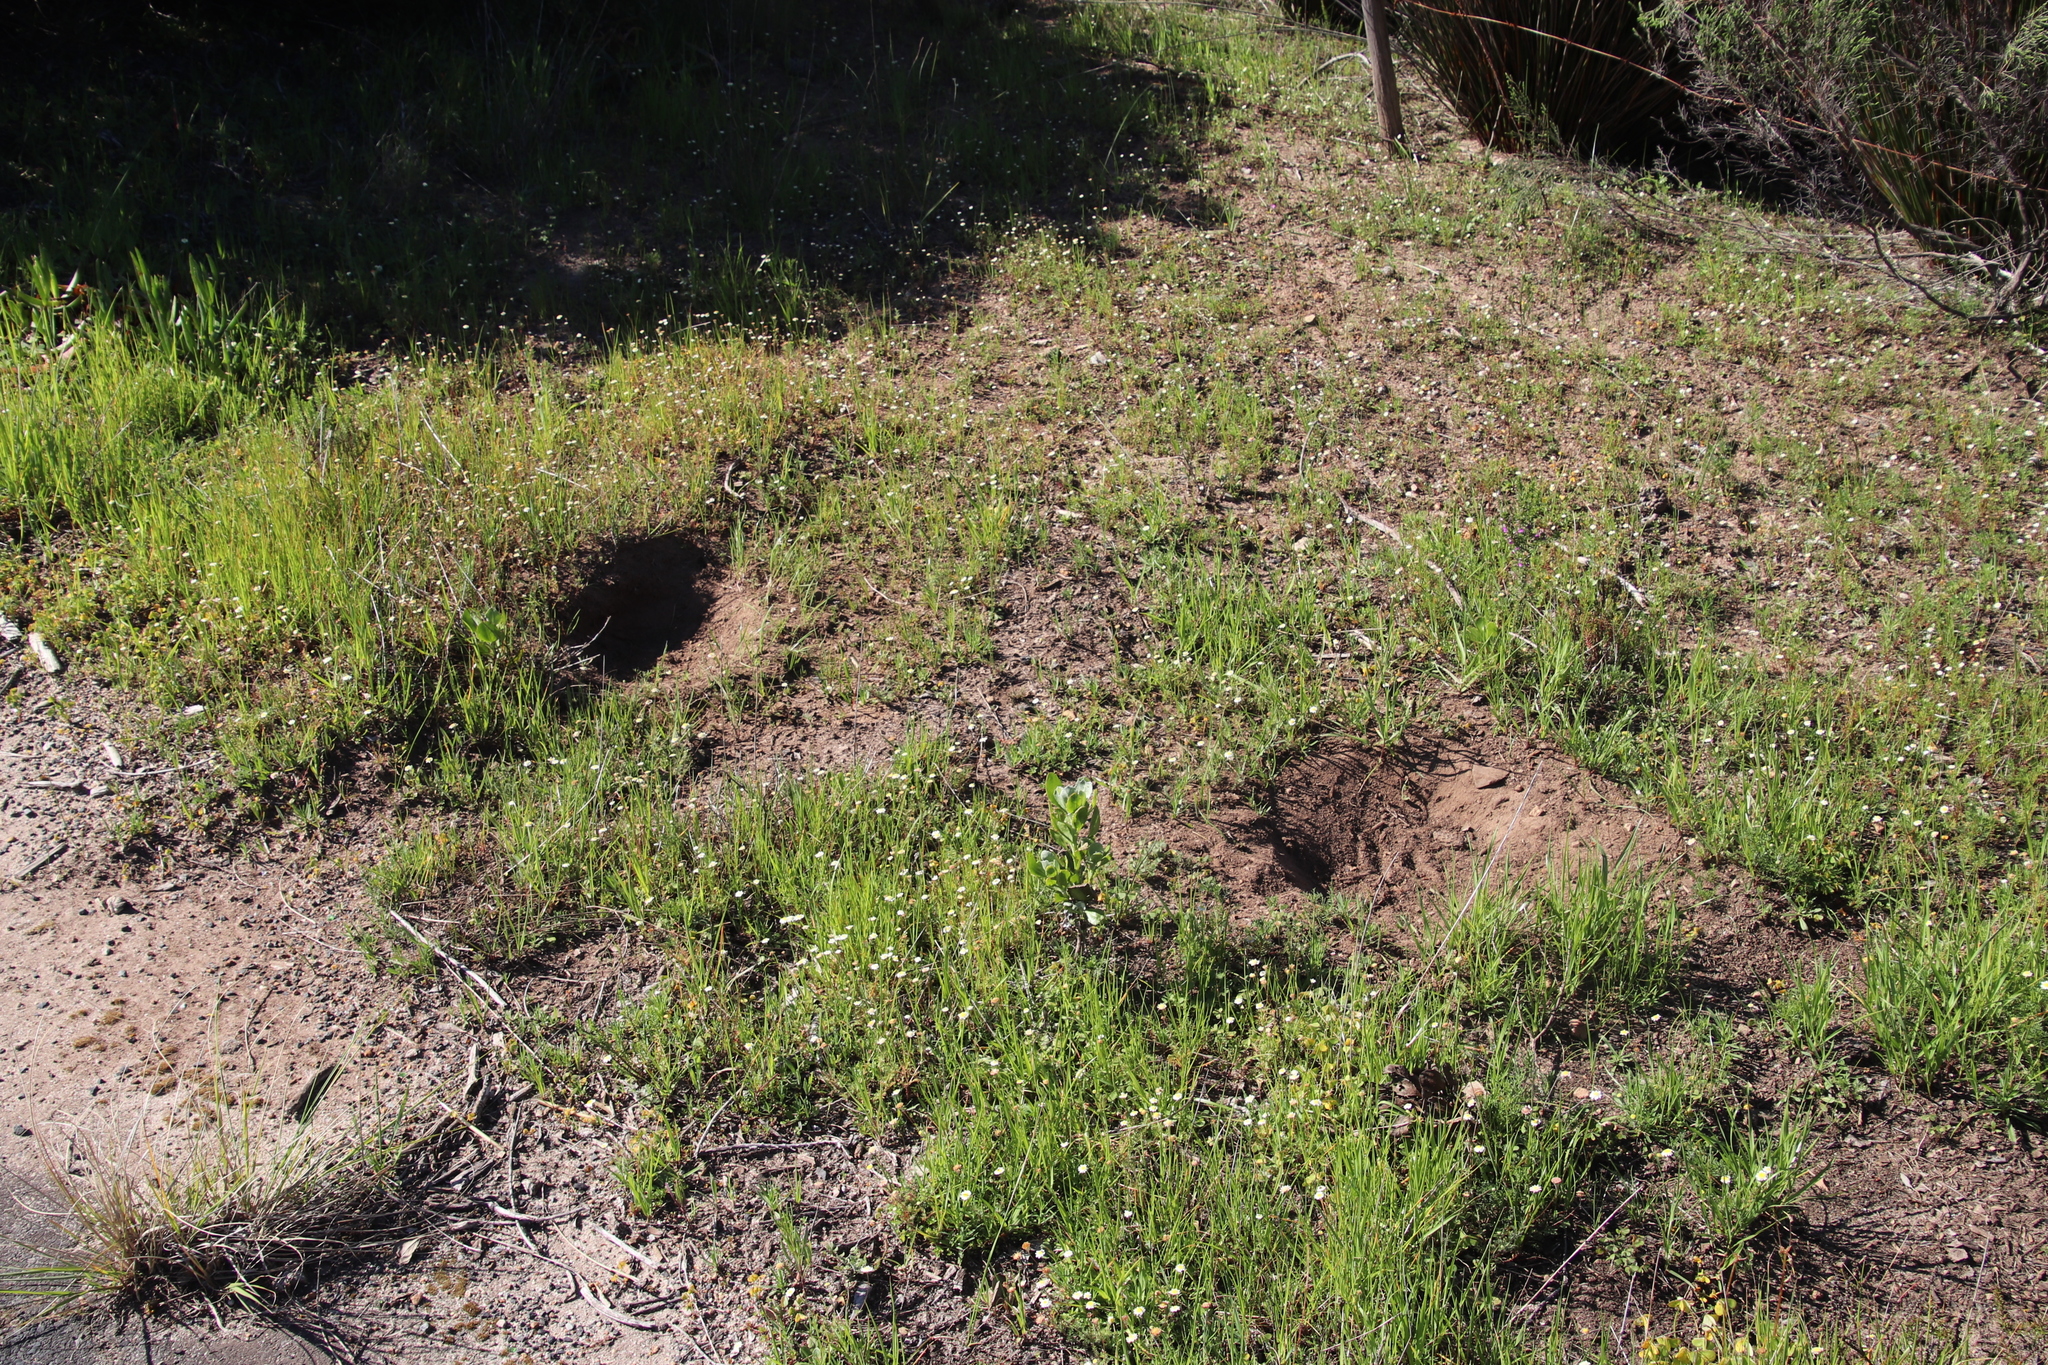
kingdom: Animalia
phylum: Chordata
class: Aves
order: Galliformes
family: Numididae
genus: Numida
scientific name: Numida meleagris
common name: Helmeted guineafowl
